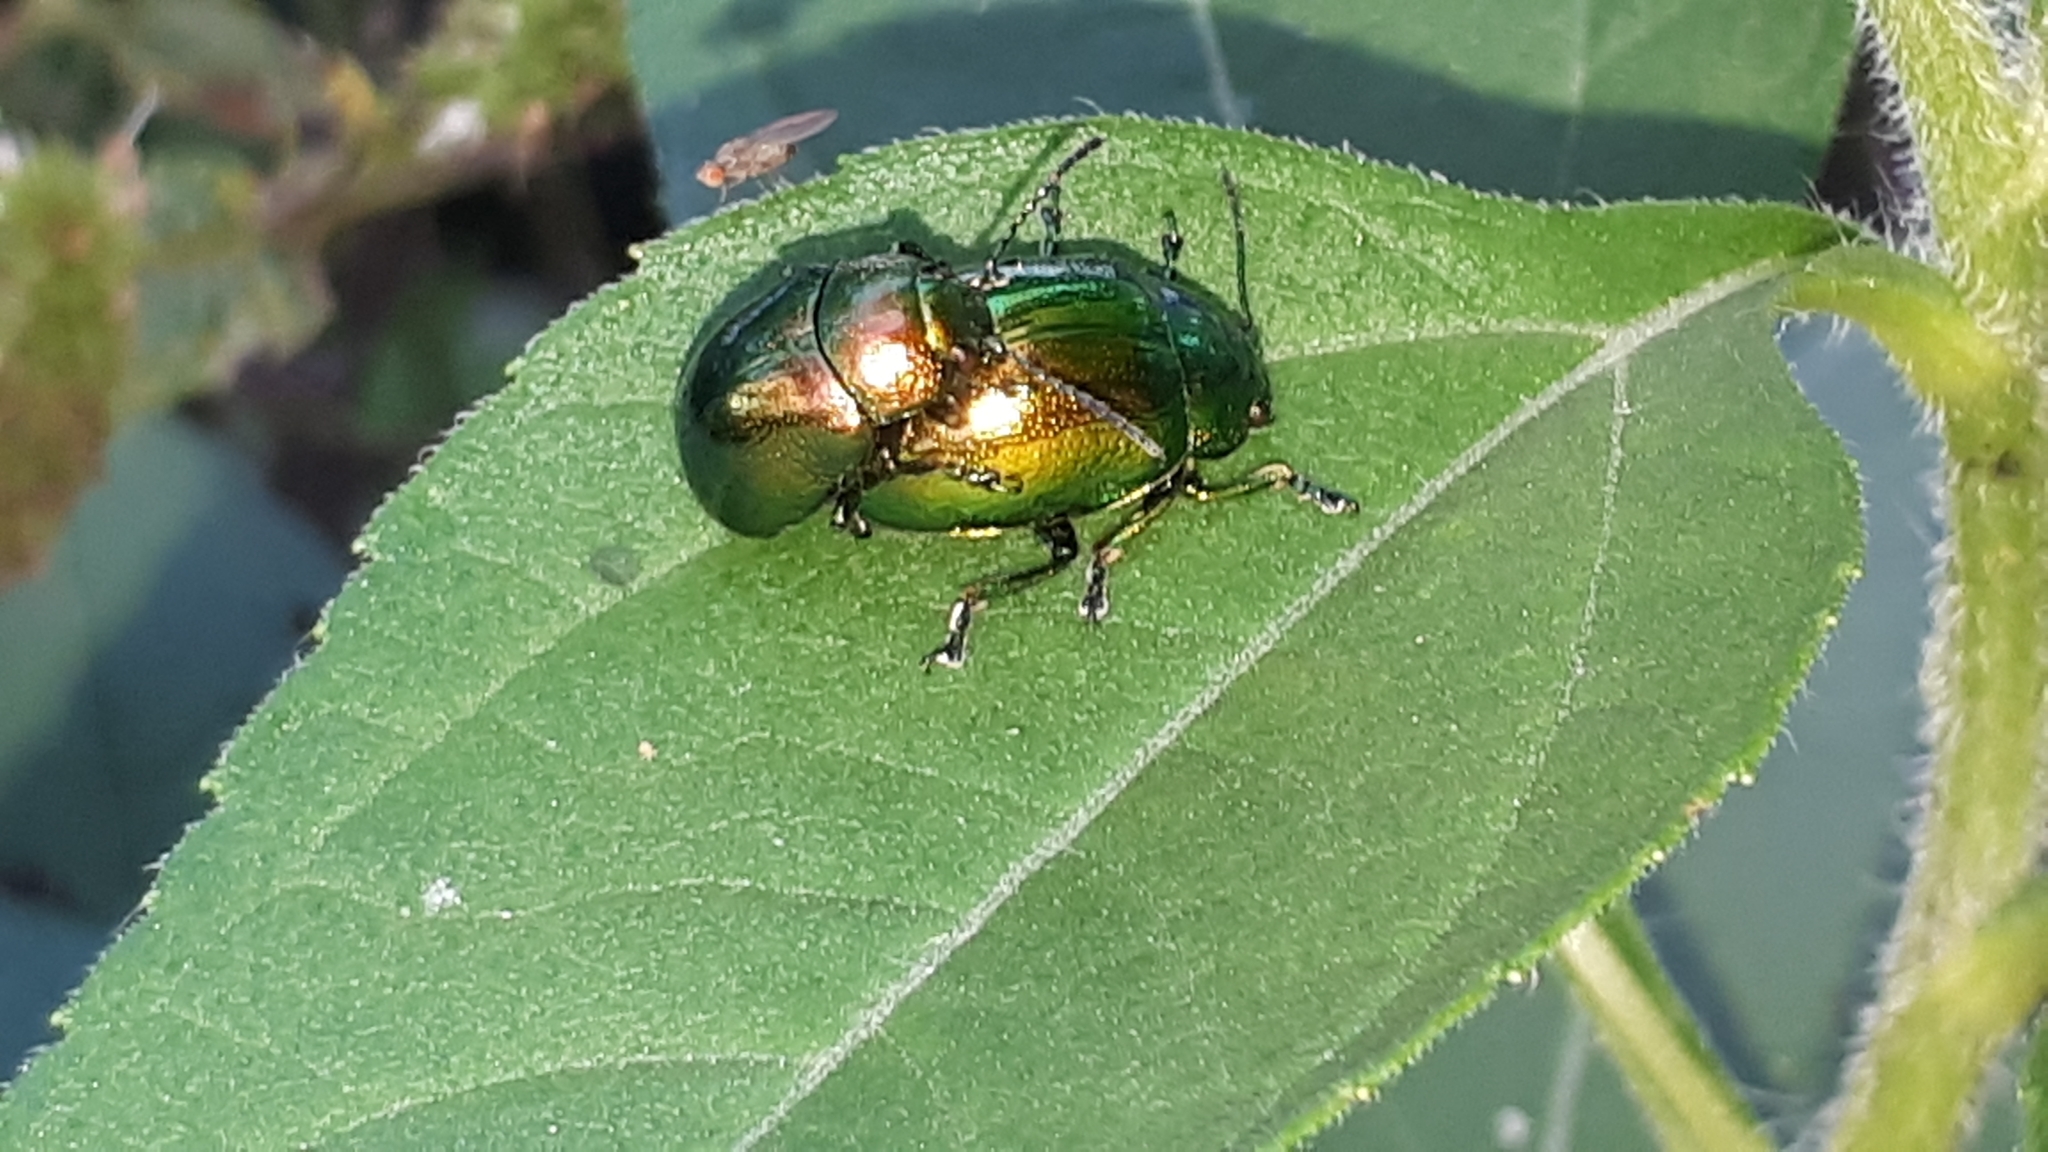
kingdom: Animalia
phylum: Arthropoda
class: Insecta
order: Coleoptera
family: Chrysomelidae
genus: Chrysolina
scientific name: Chrysolina herbacea
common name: Mint leaf beatle
